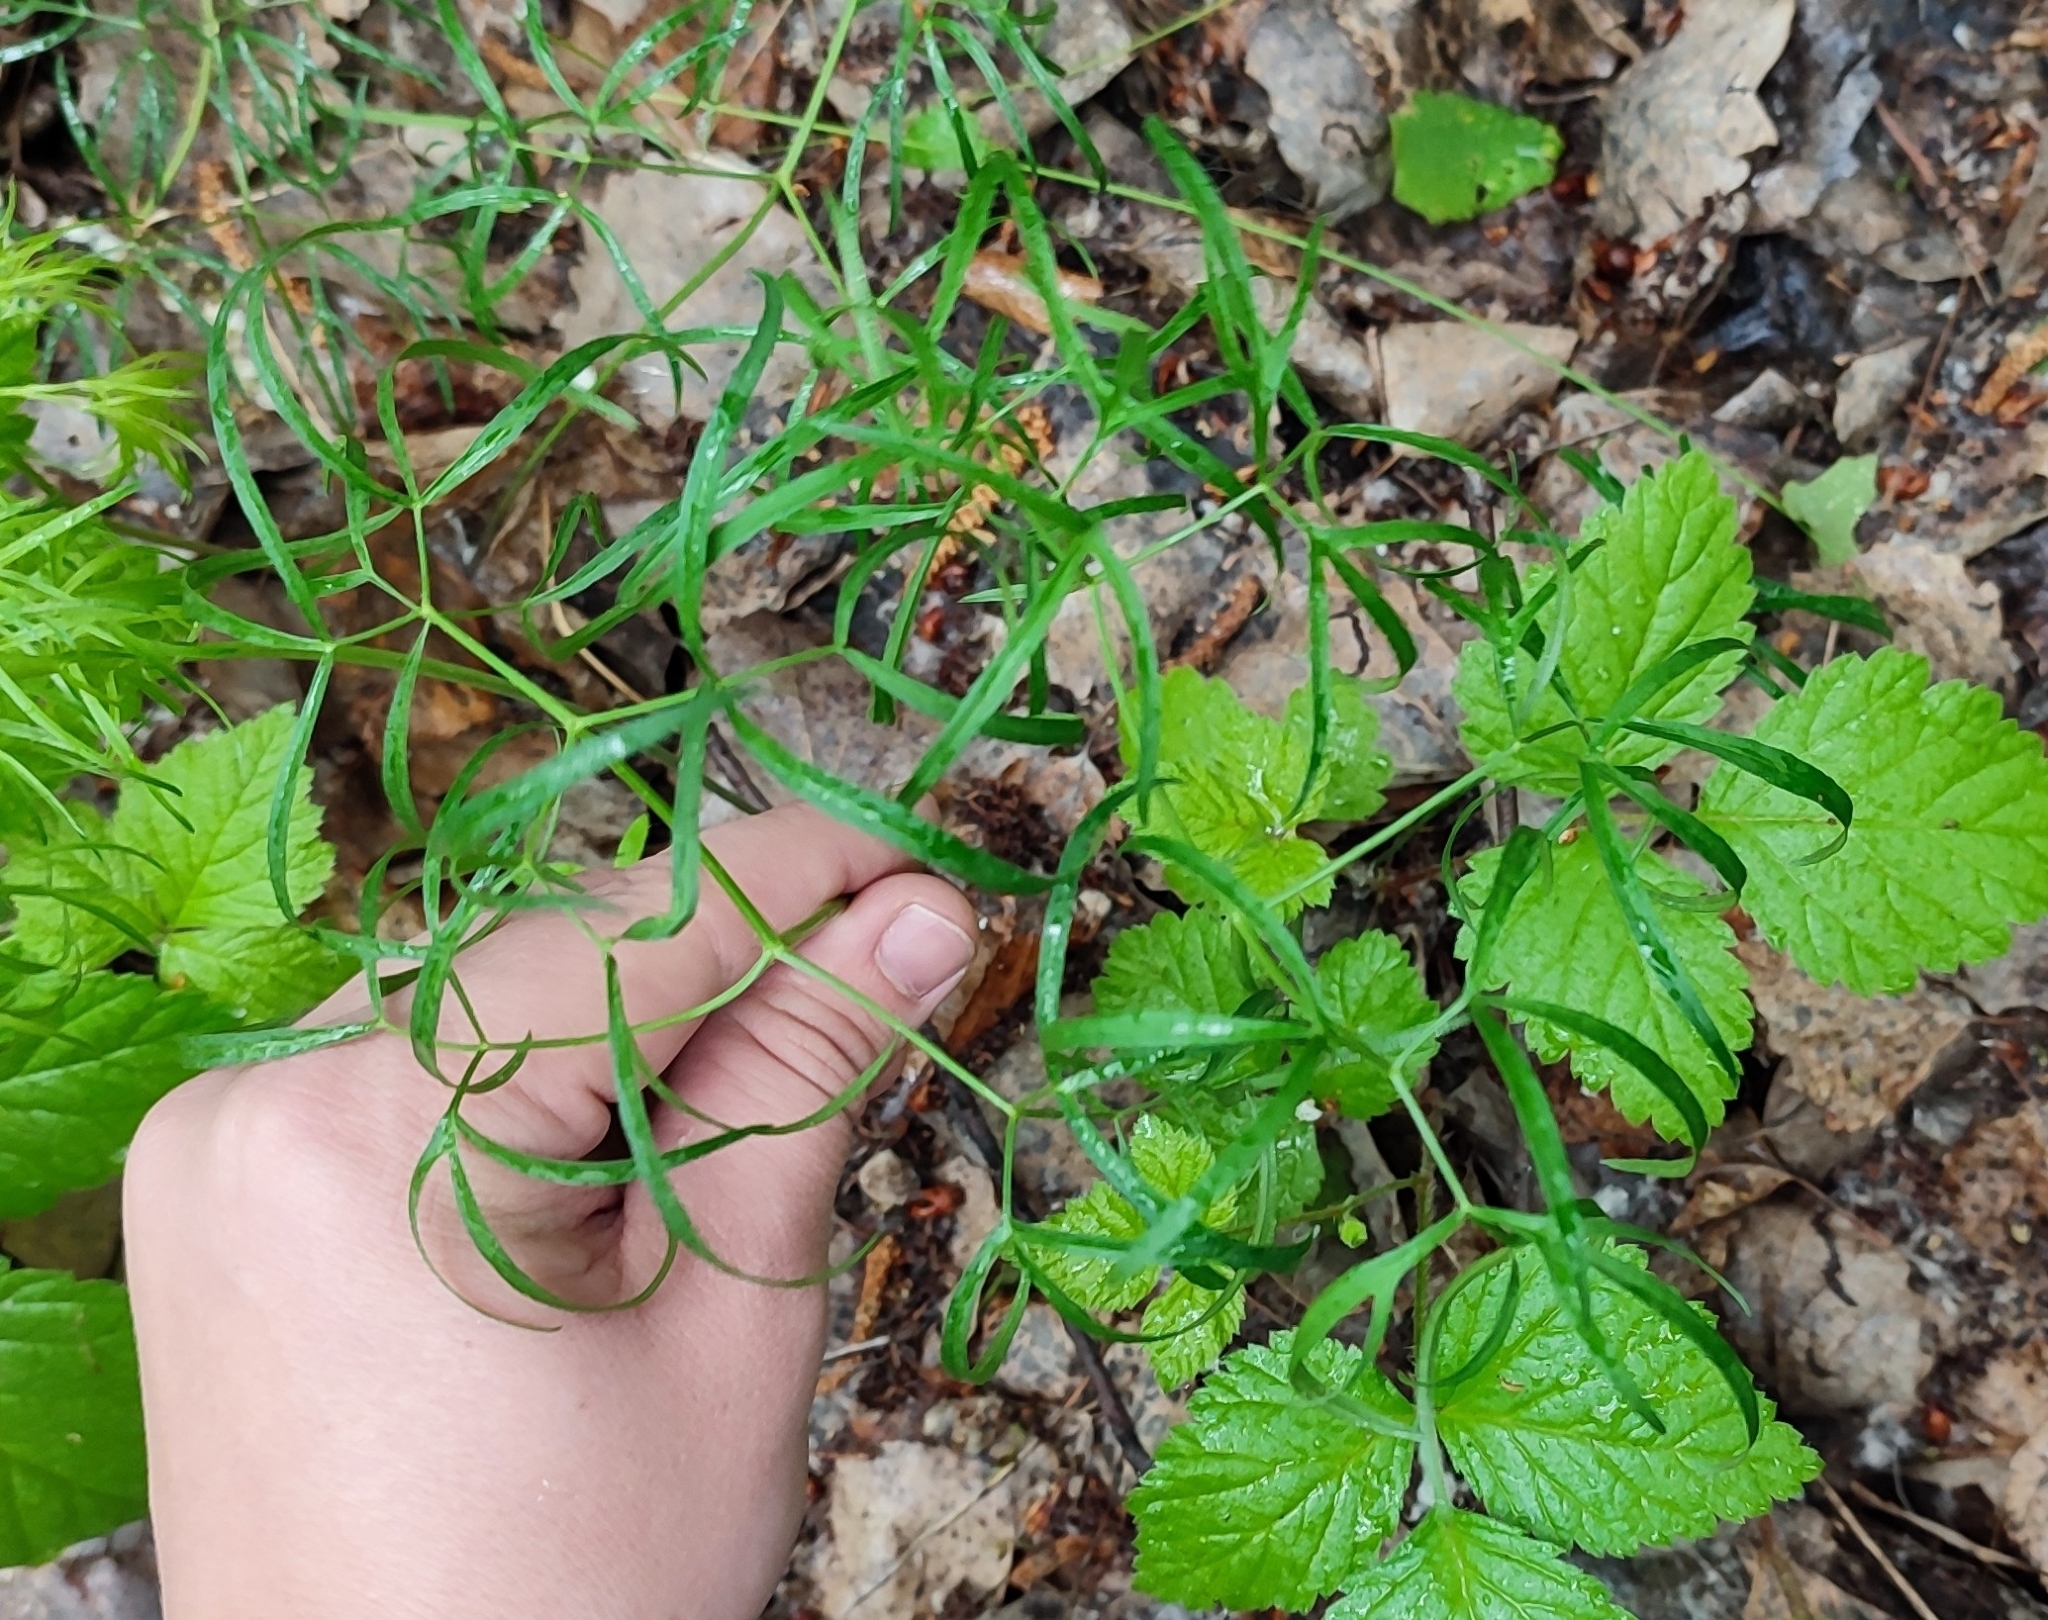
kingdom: Plantae
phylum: Tracheophyta
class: Magnoliopsida
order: Apiales
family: Apiaceae
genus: Cenolophium
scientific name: Cenolophium fischeri
